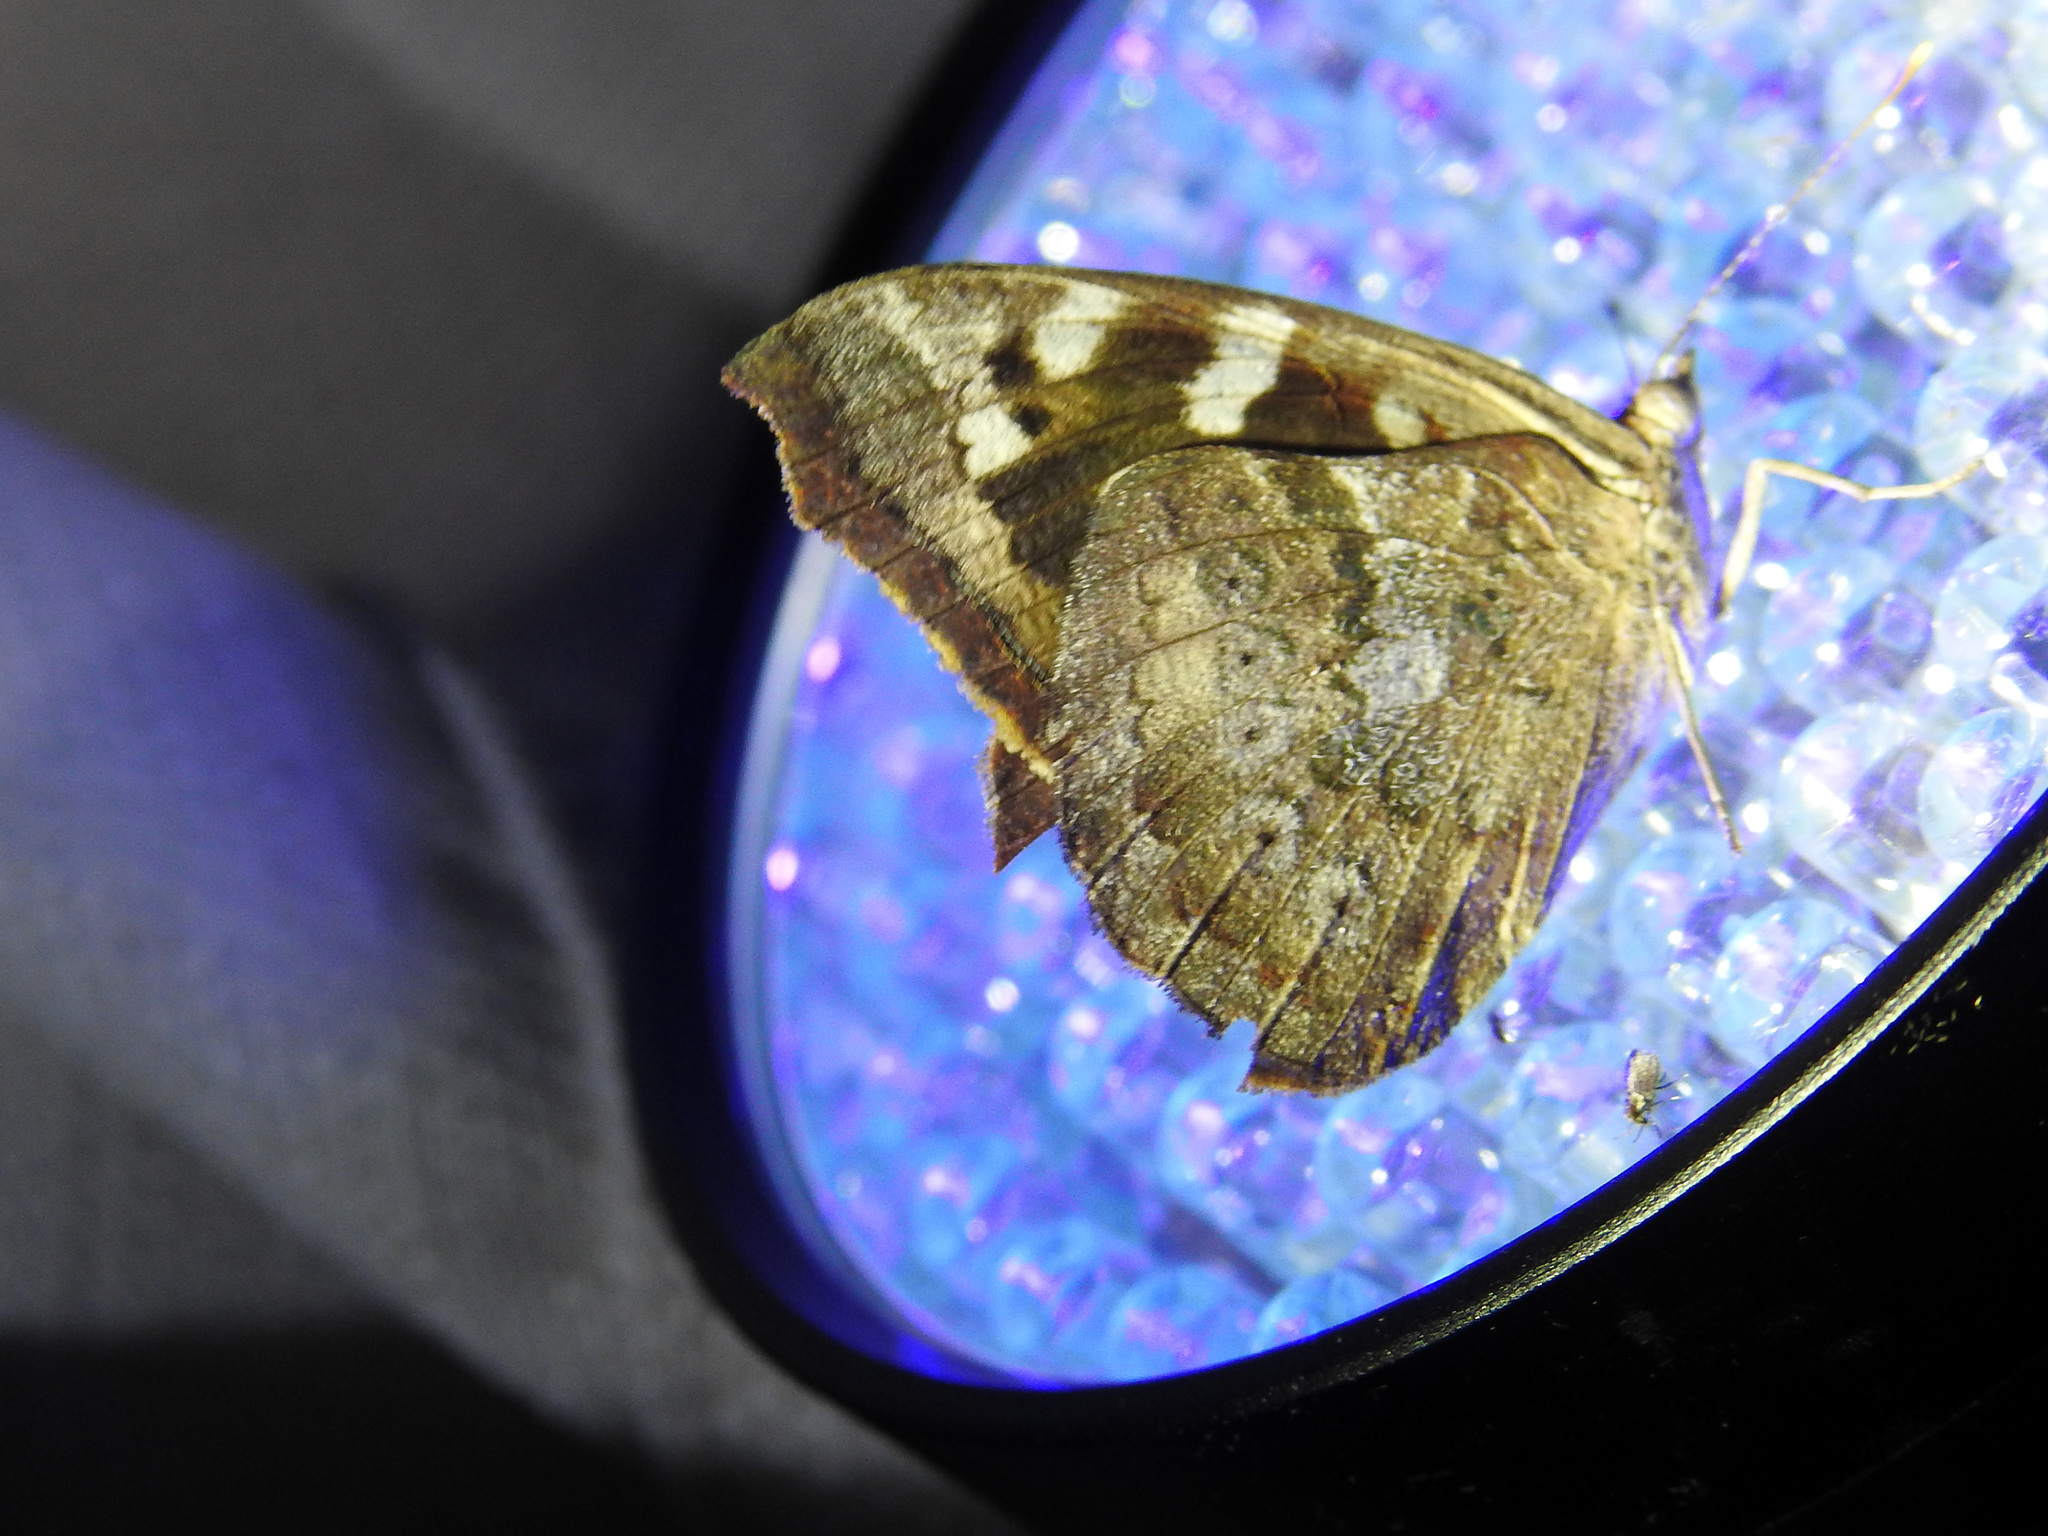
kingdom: Animalia
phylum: Arthropoda
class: Insecta
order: Lepidoptera
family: Nymphalidae
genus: Eunica
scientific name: Eunica tatila
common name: Florida purplewing
